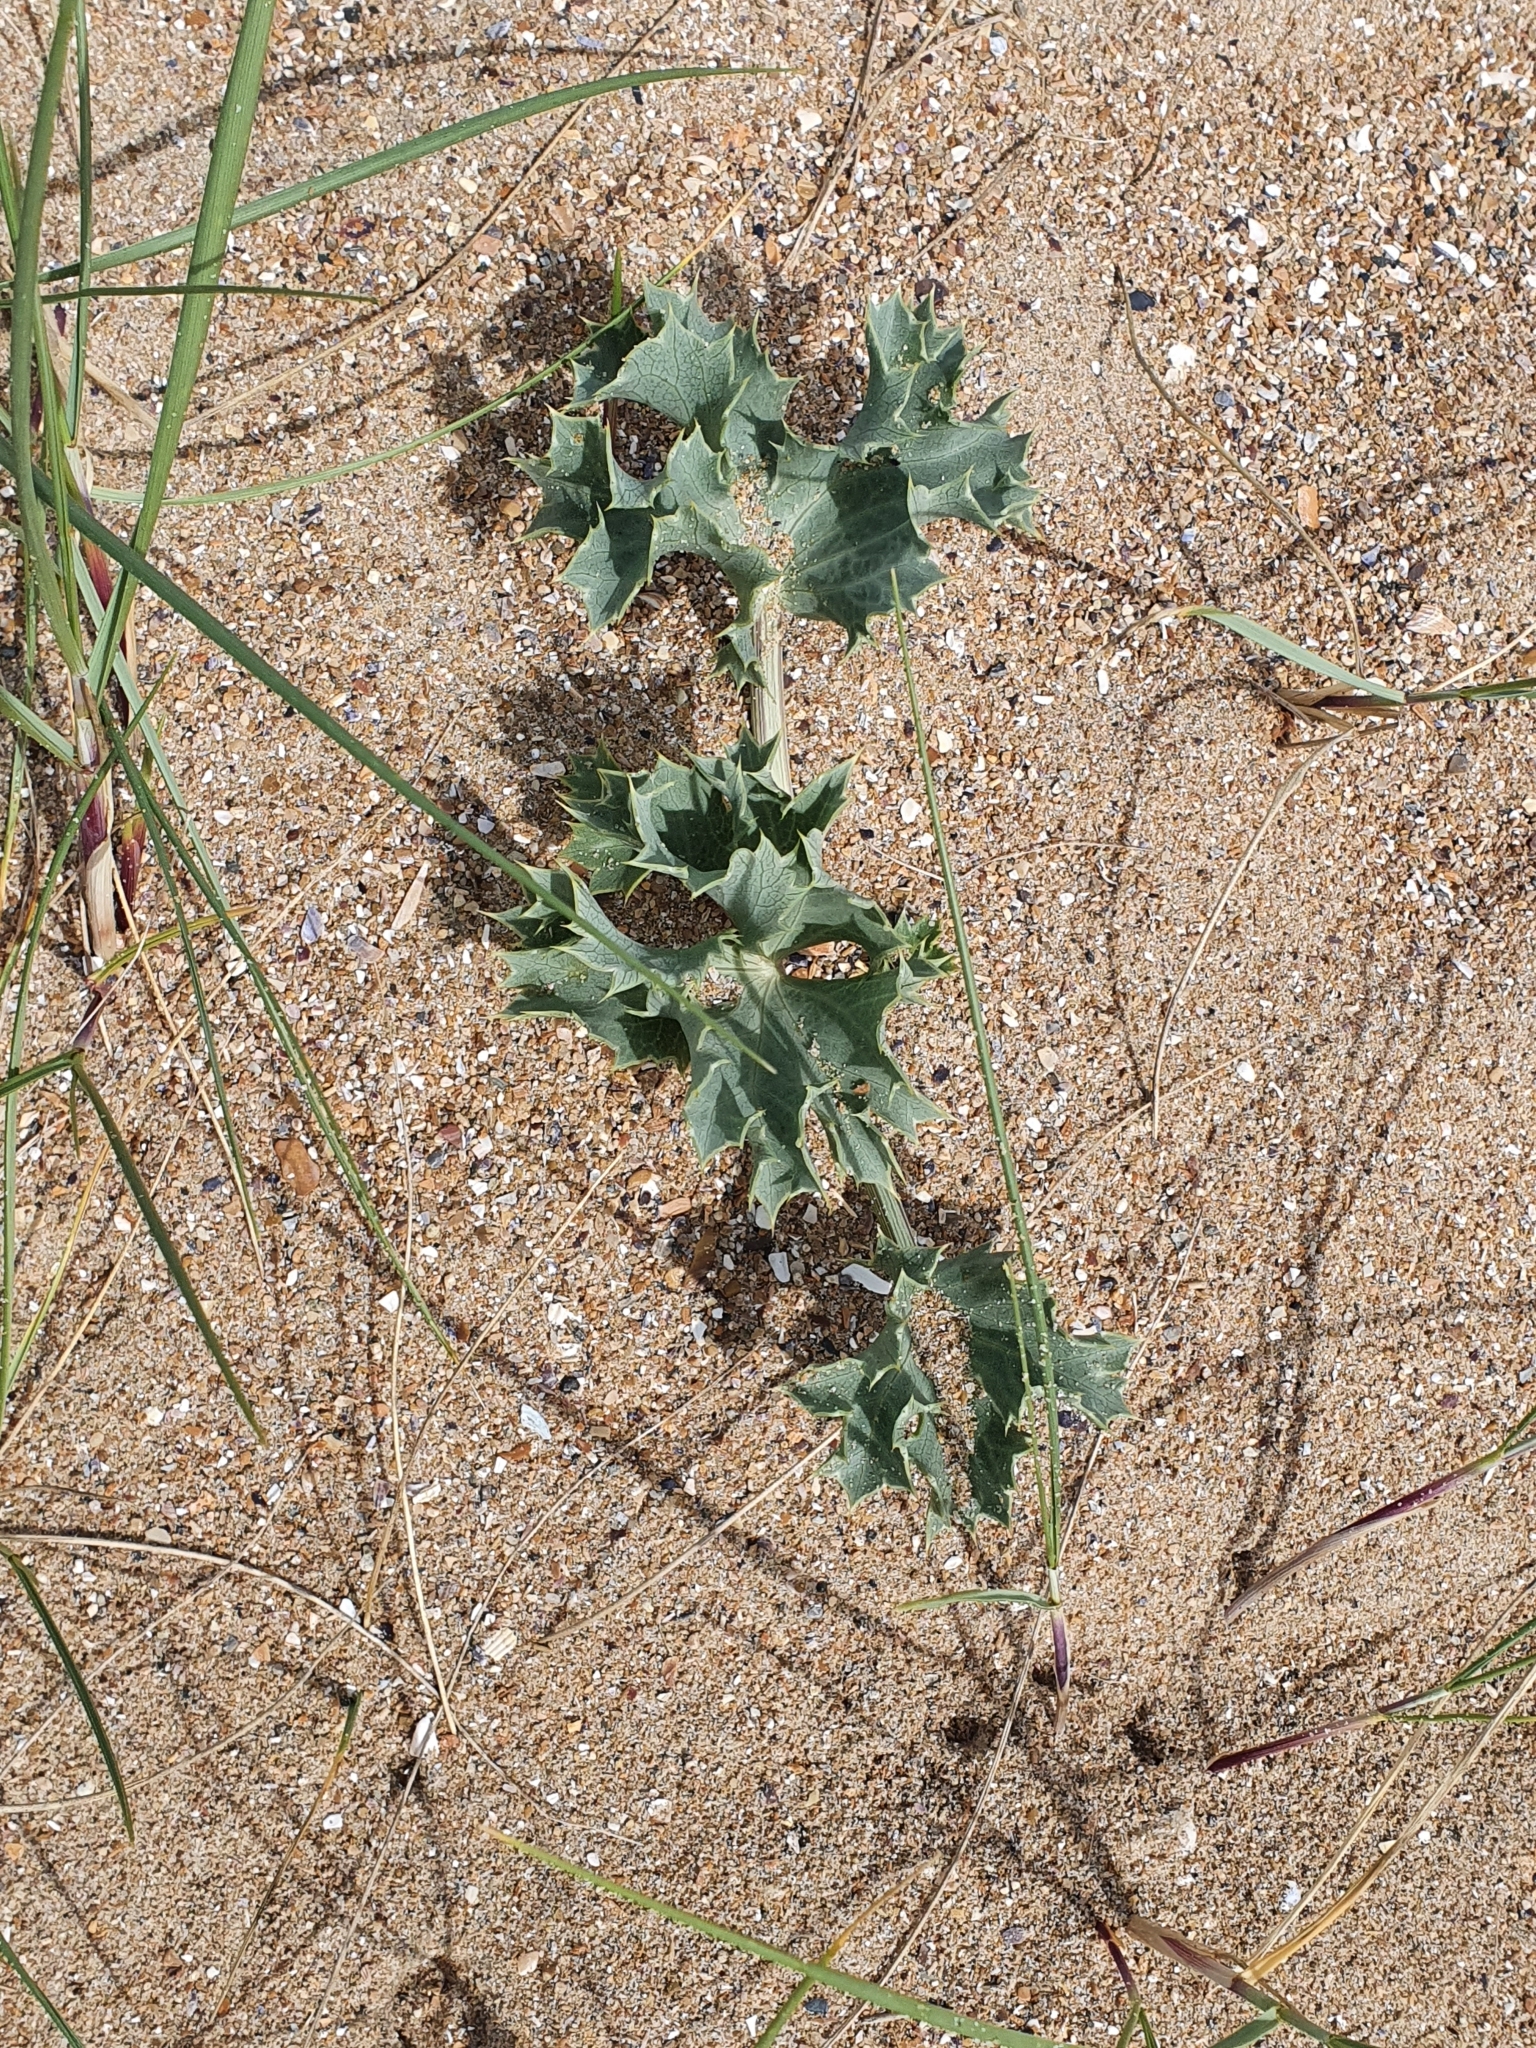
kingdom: Plantae
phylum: Tracheophyta
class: Magnoliopsida
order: Apiales
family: Apiaceae
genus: Eryngium
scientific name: Eryngium maritimum
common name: Sea-holly
